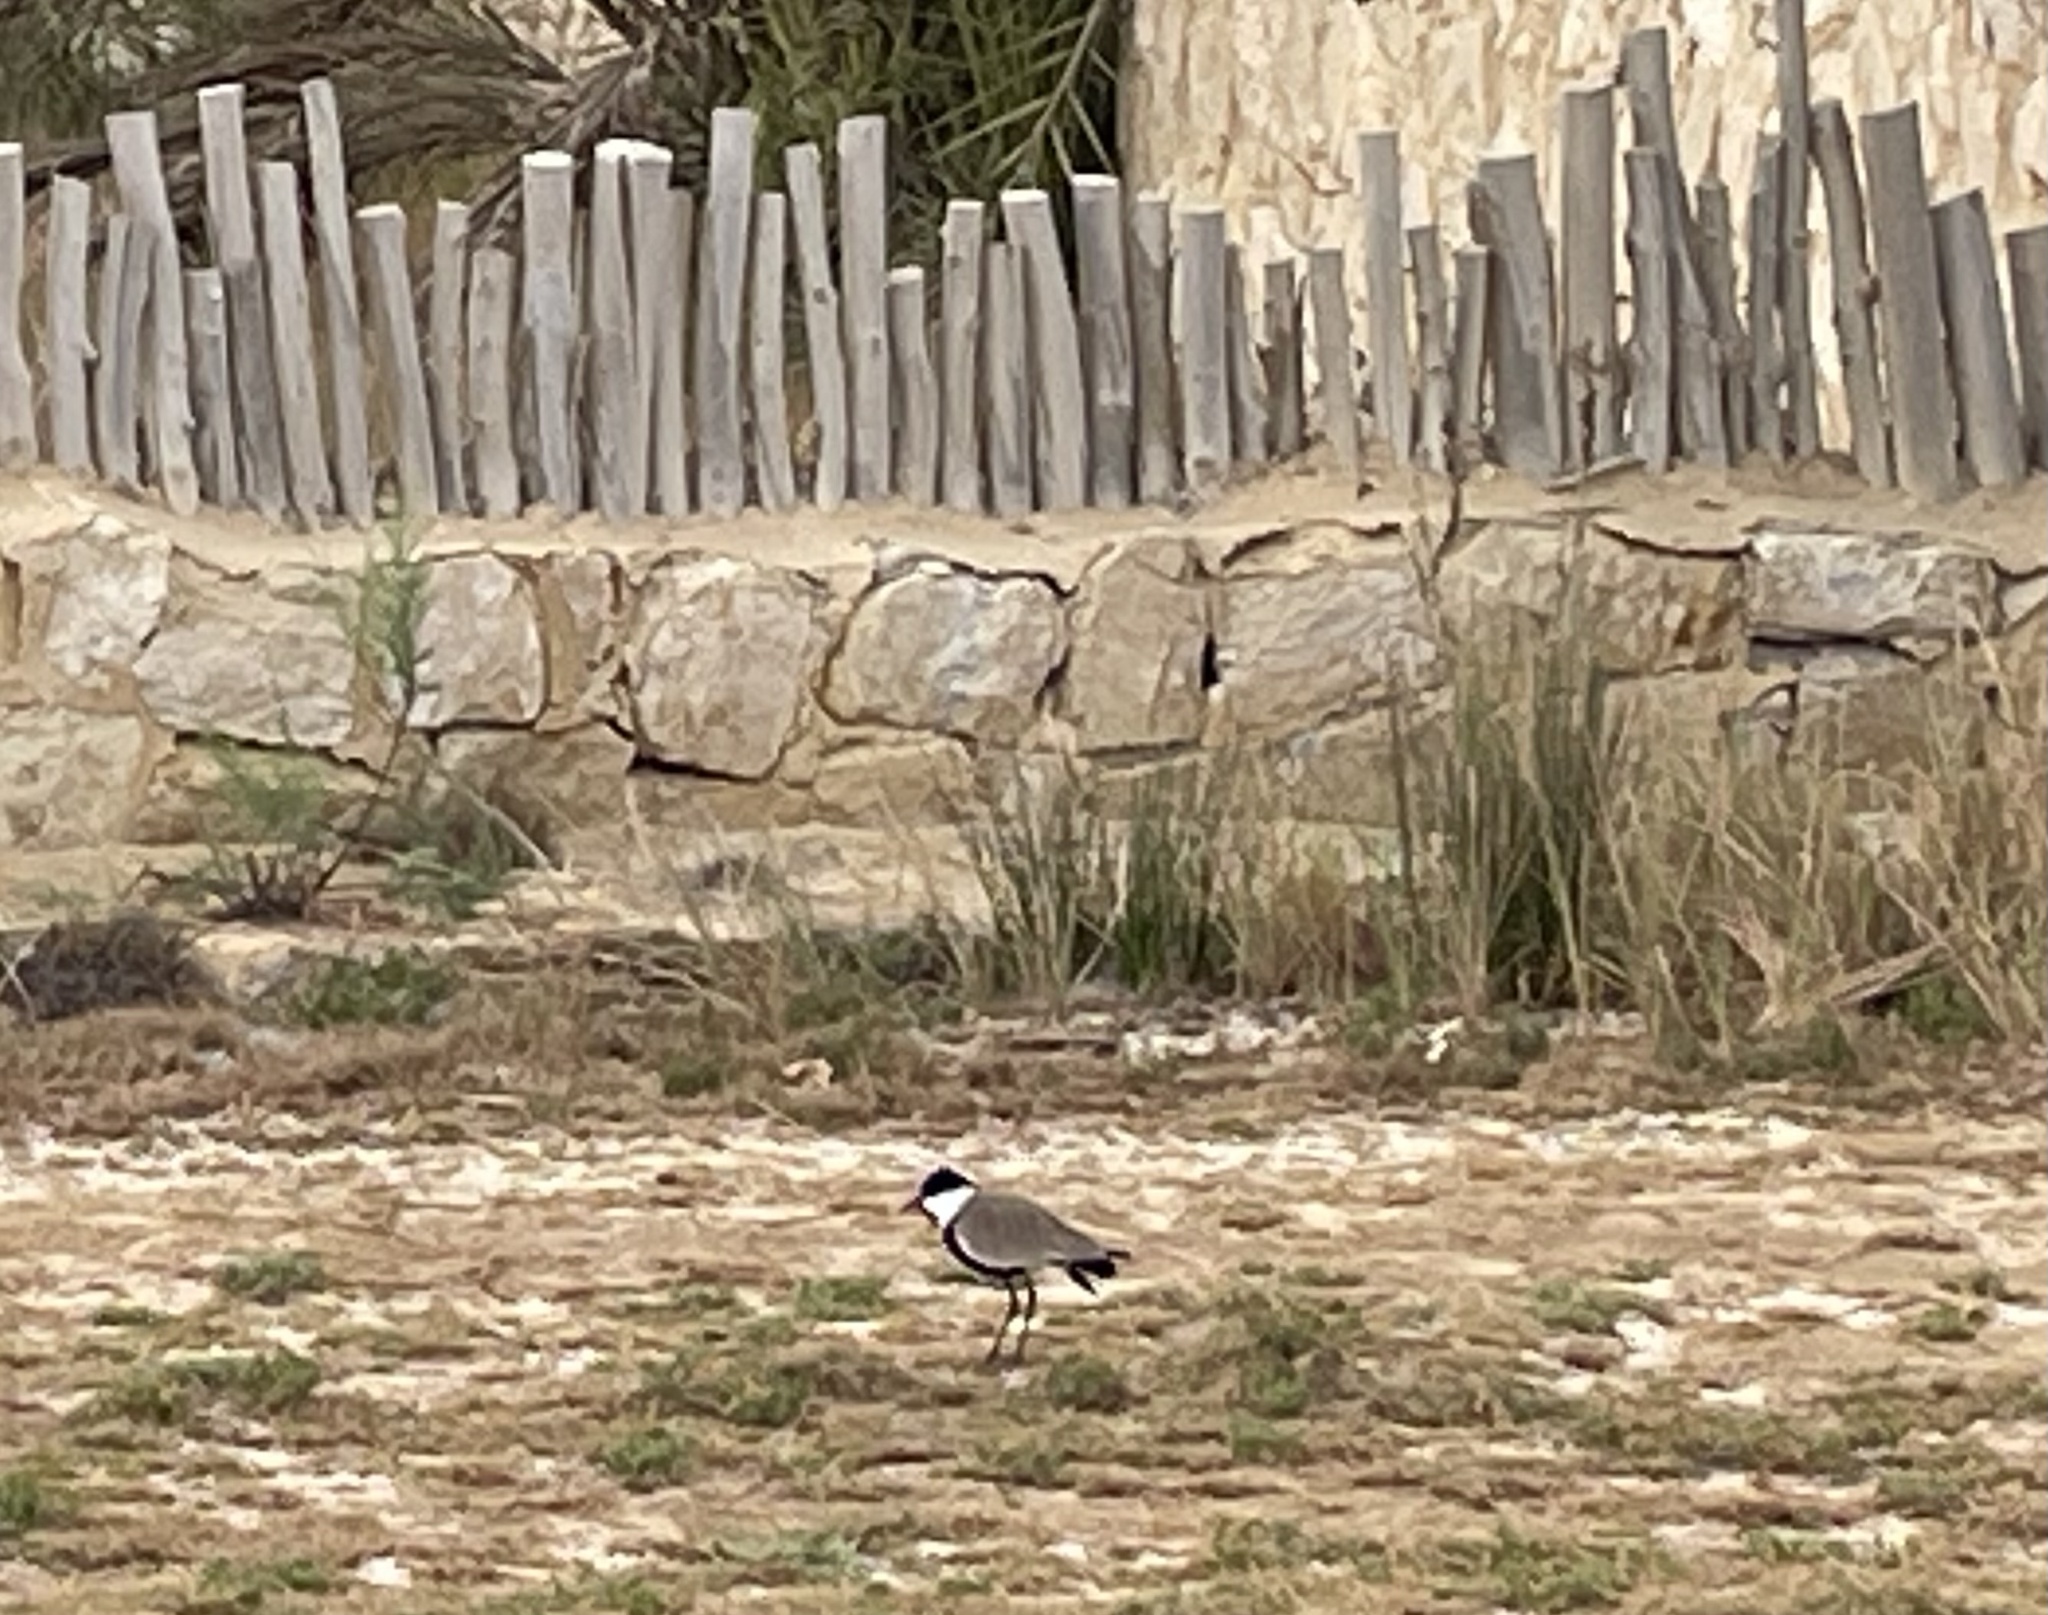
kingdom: Animalia
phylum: Chordata
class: Aves
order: Charadriiformes
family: Charadriidae
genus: Vanellus
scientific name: Vanellus spinosus
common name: Spur-winged lapwing
